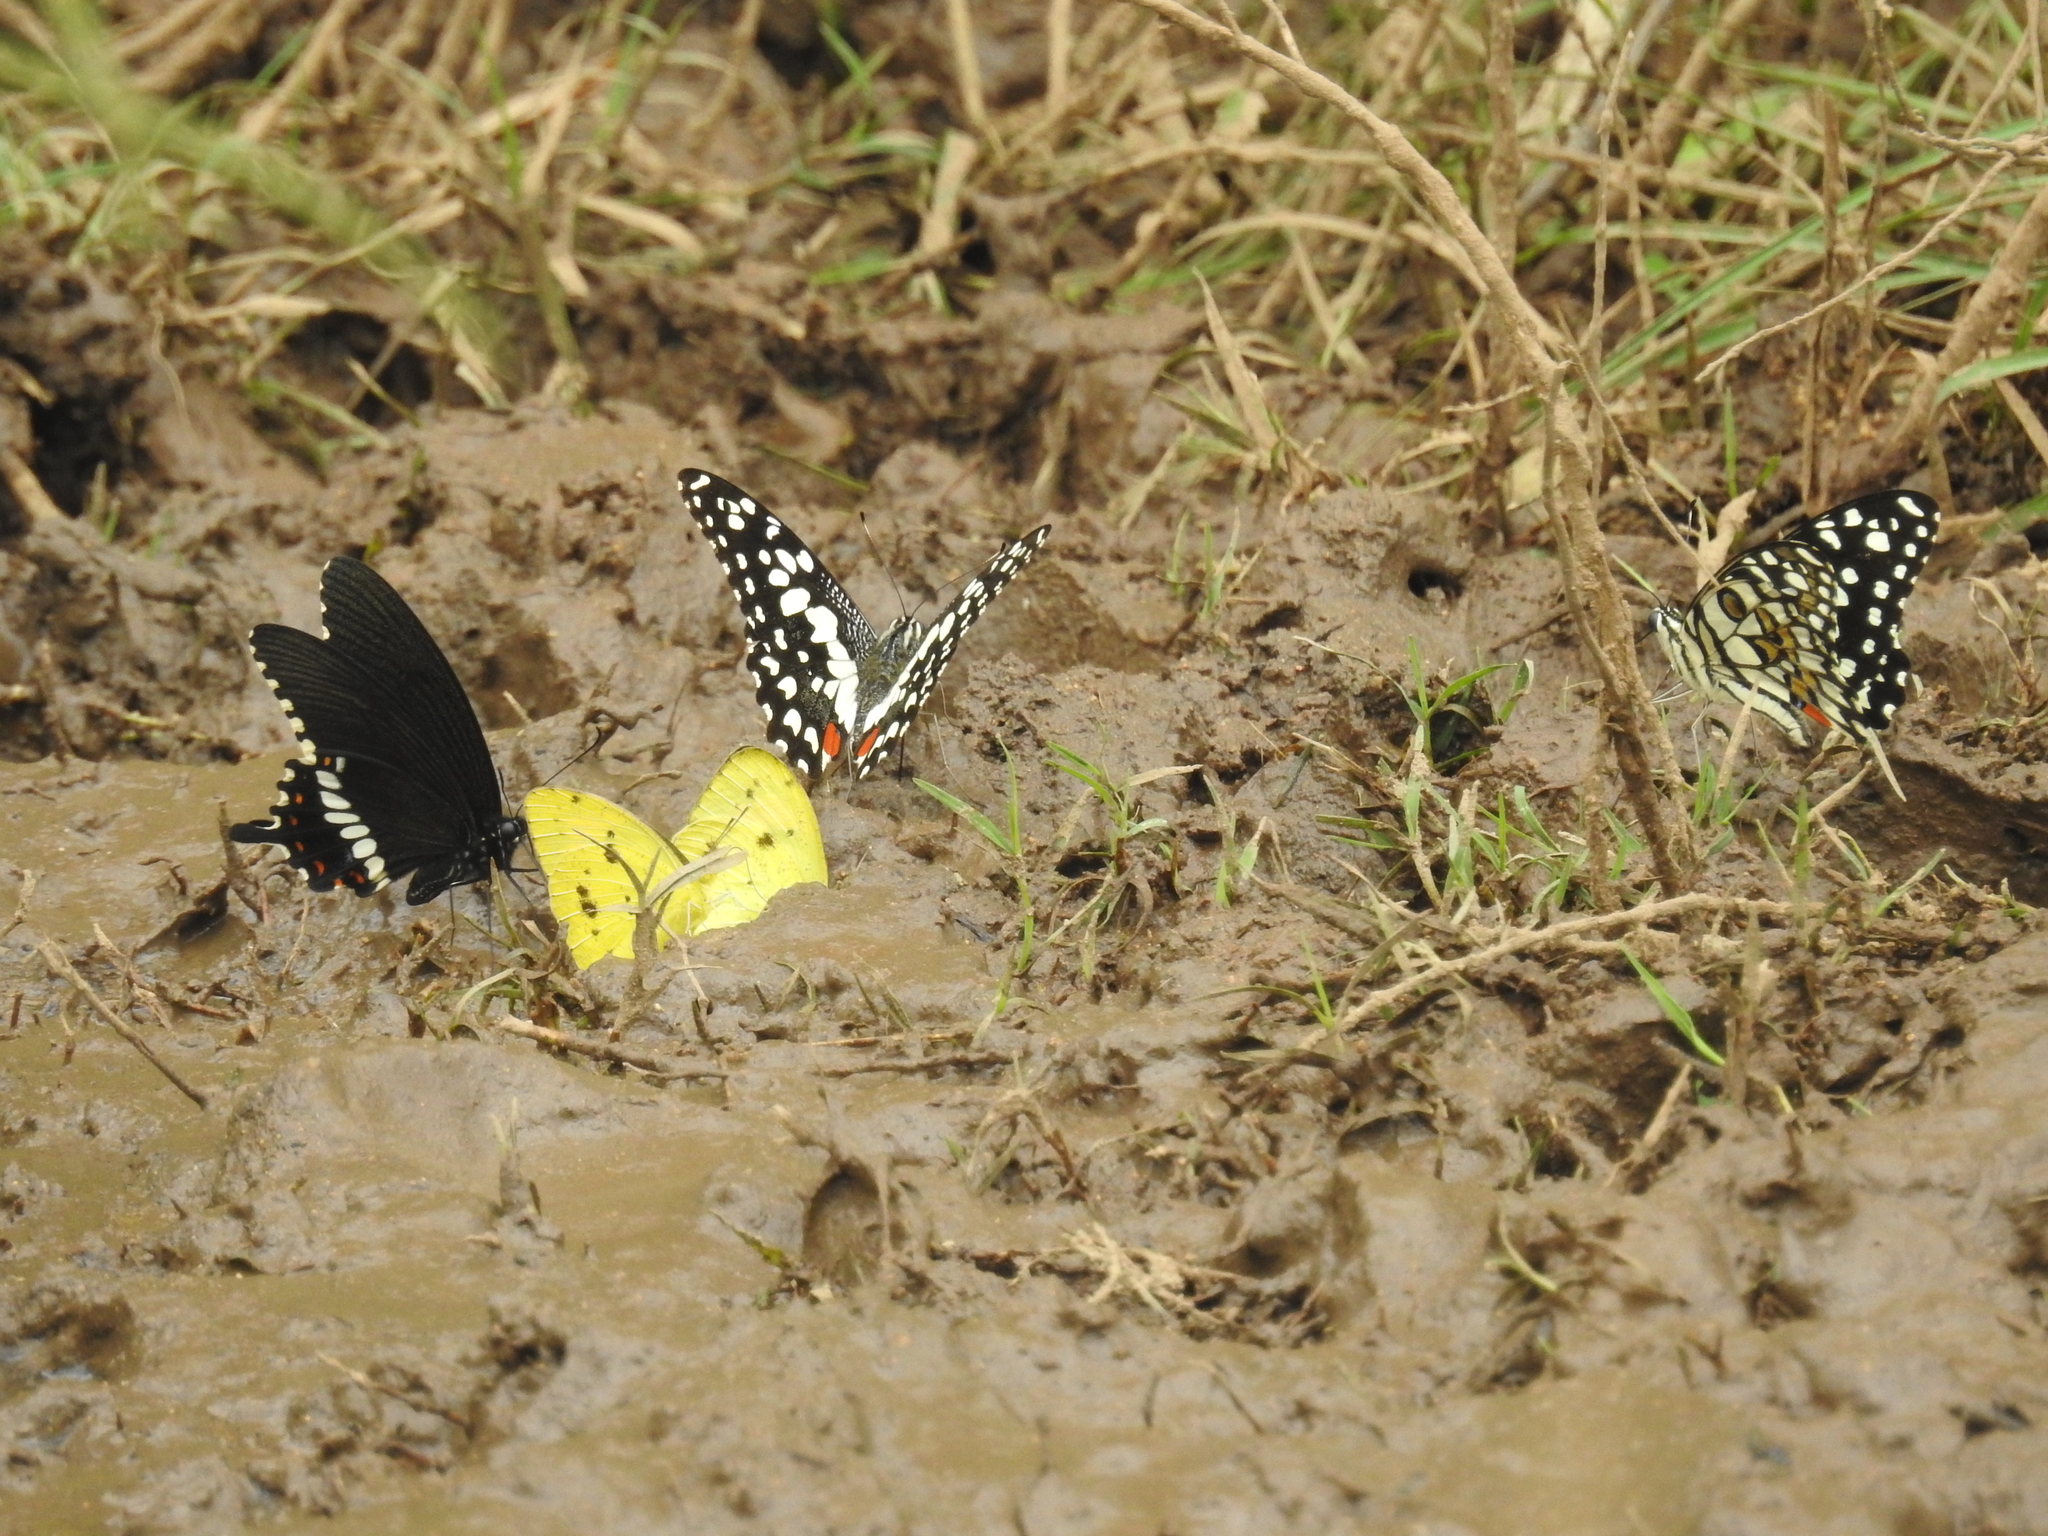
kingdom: Animalia
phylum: Arthropoda
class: Insecta
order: Lepidoptera
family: Papilionidae
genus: Papilio
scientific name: Papilio demoleus
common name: Lime butterfly
